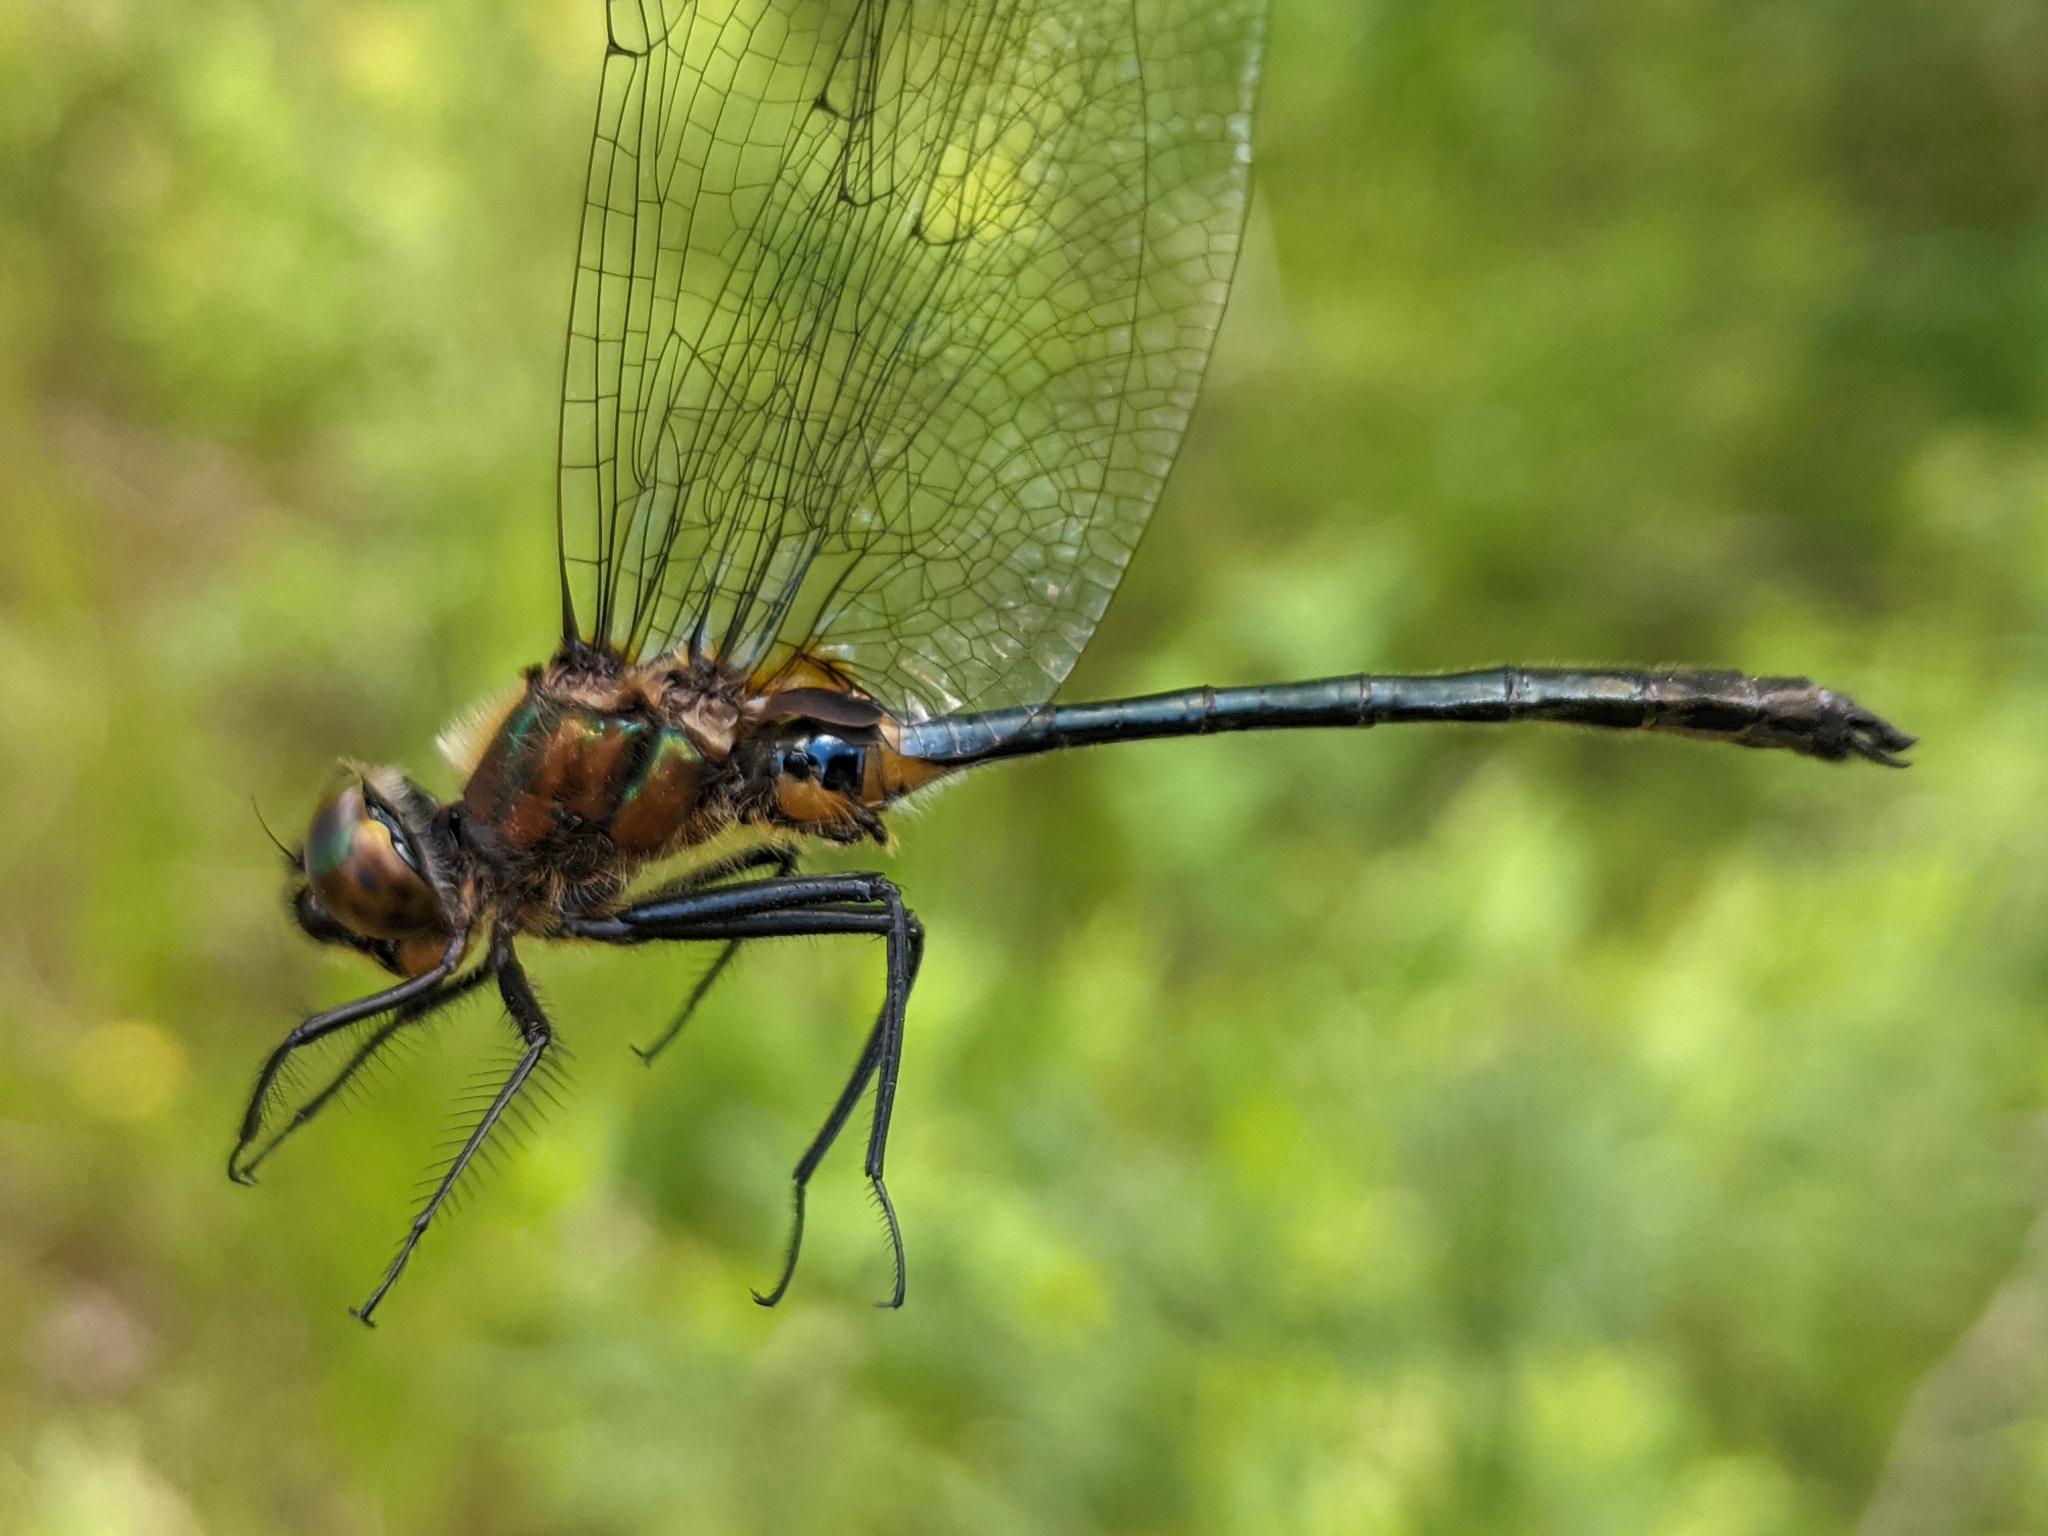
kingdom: Animalia
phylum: Arthropoda
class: Insecta
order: Odonata
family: Corduliidae
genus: Dorocordulia
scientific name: Dorocordulia libera
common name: Racket-tailed emerald
